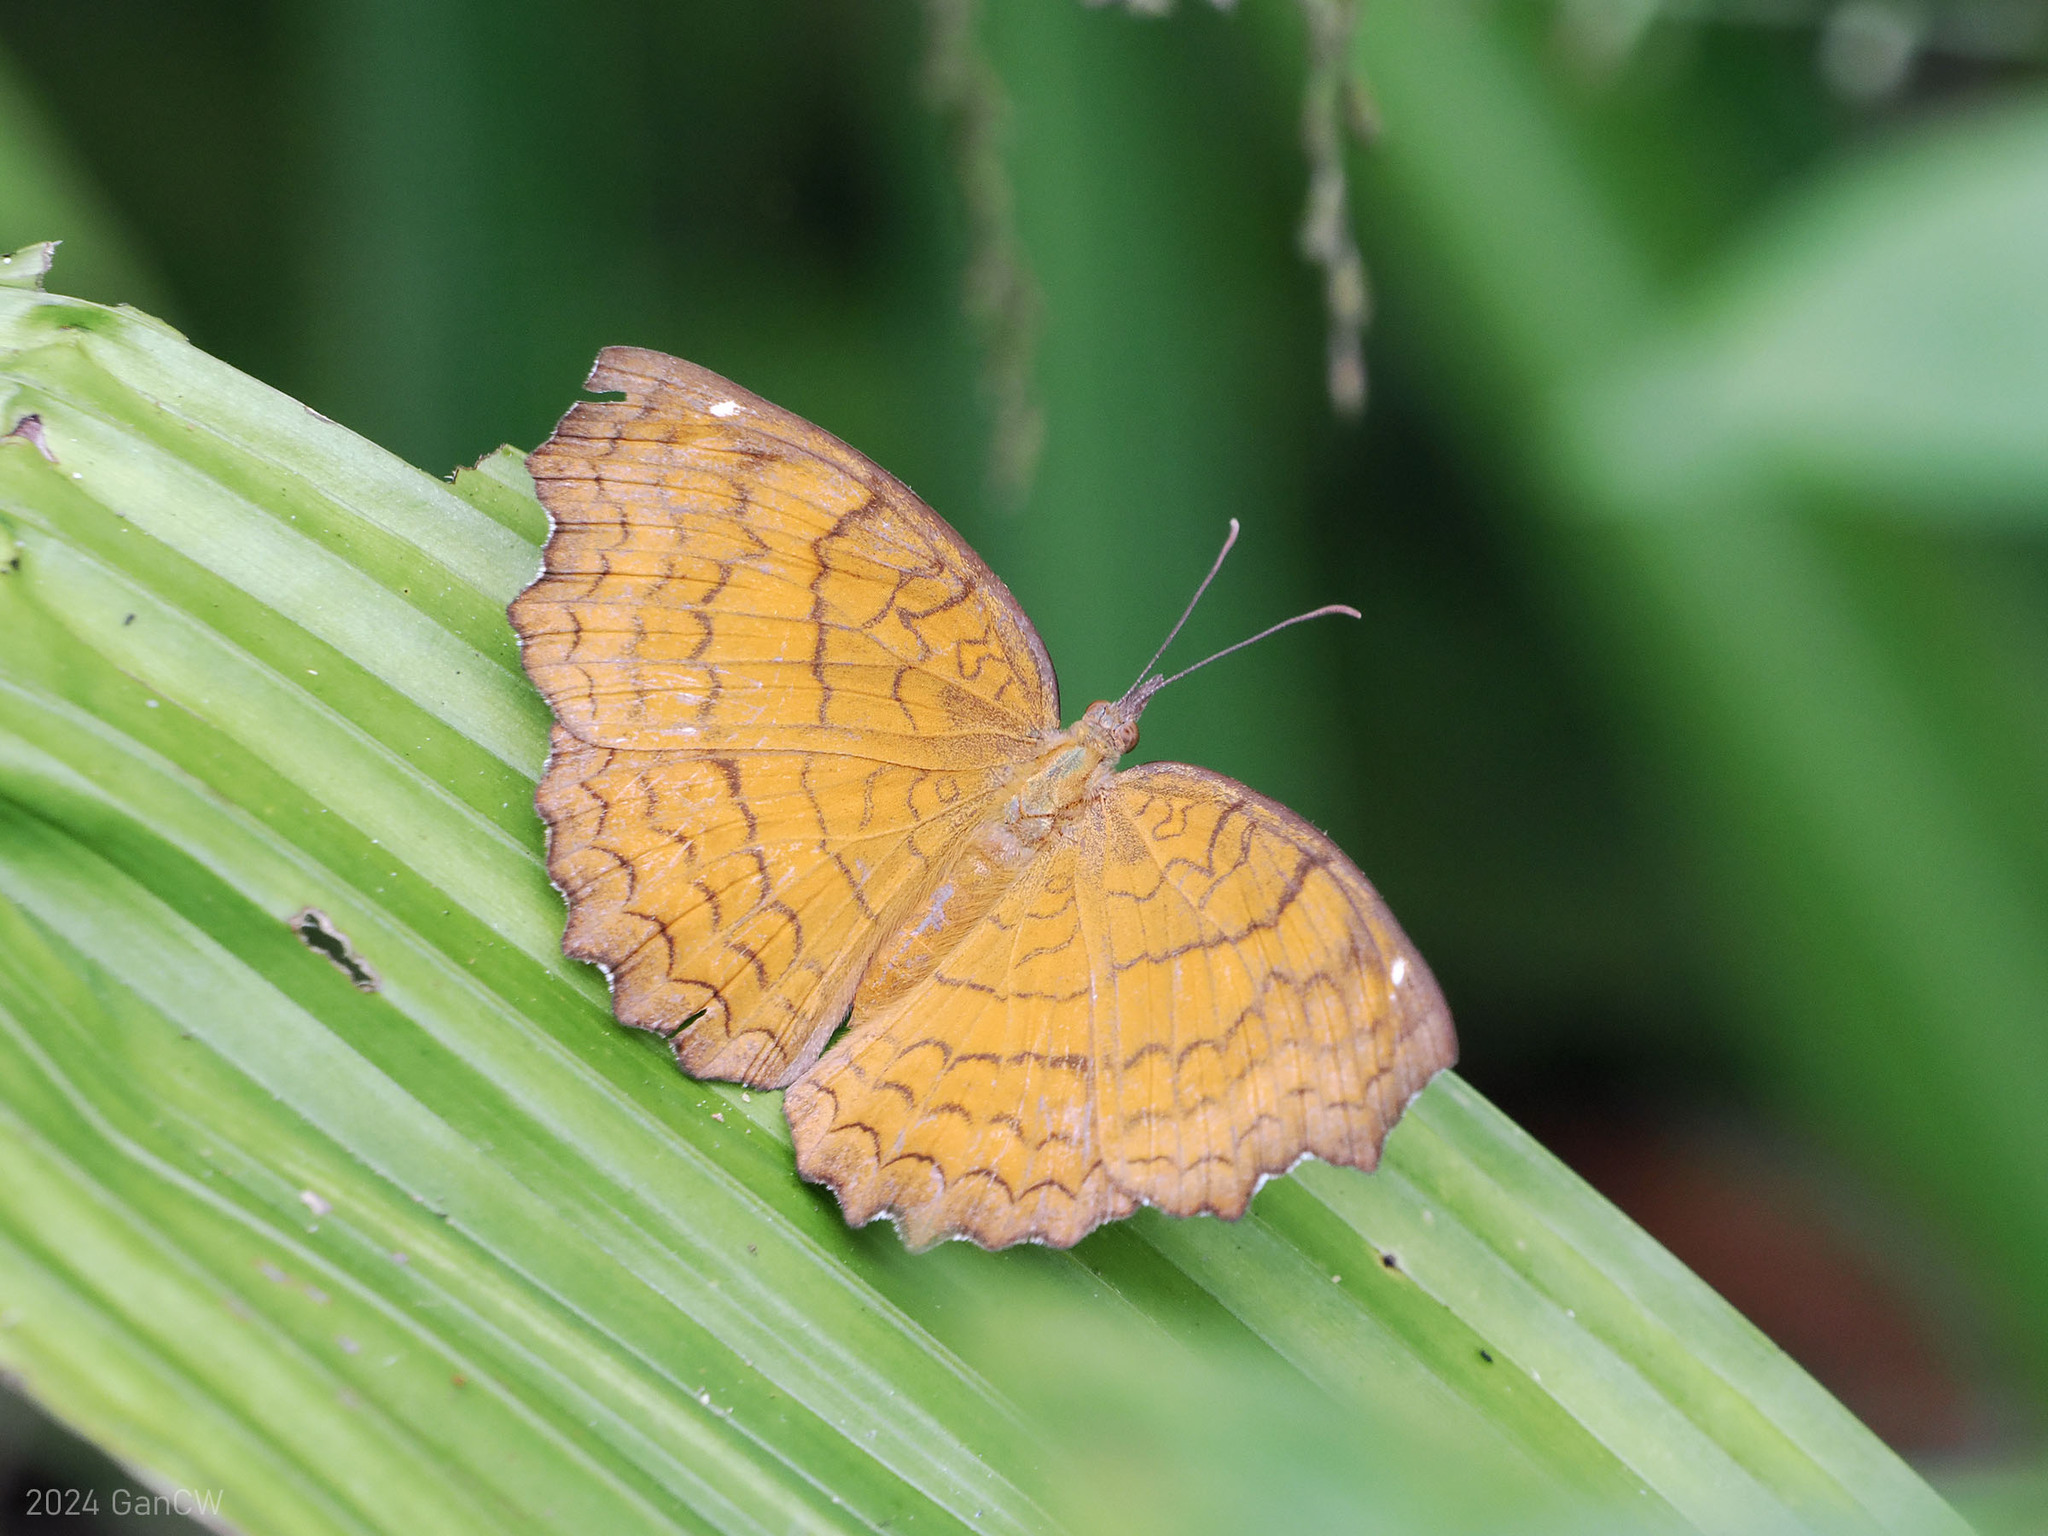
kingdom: Animalia
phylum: Arthropoda
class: Insecta
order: Lepidoptera
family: Nymphalidae
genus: Ariadne
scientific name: Ariadne ariadne
